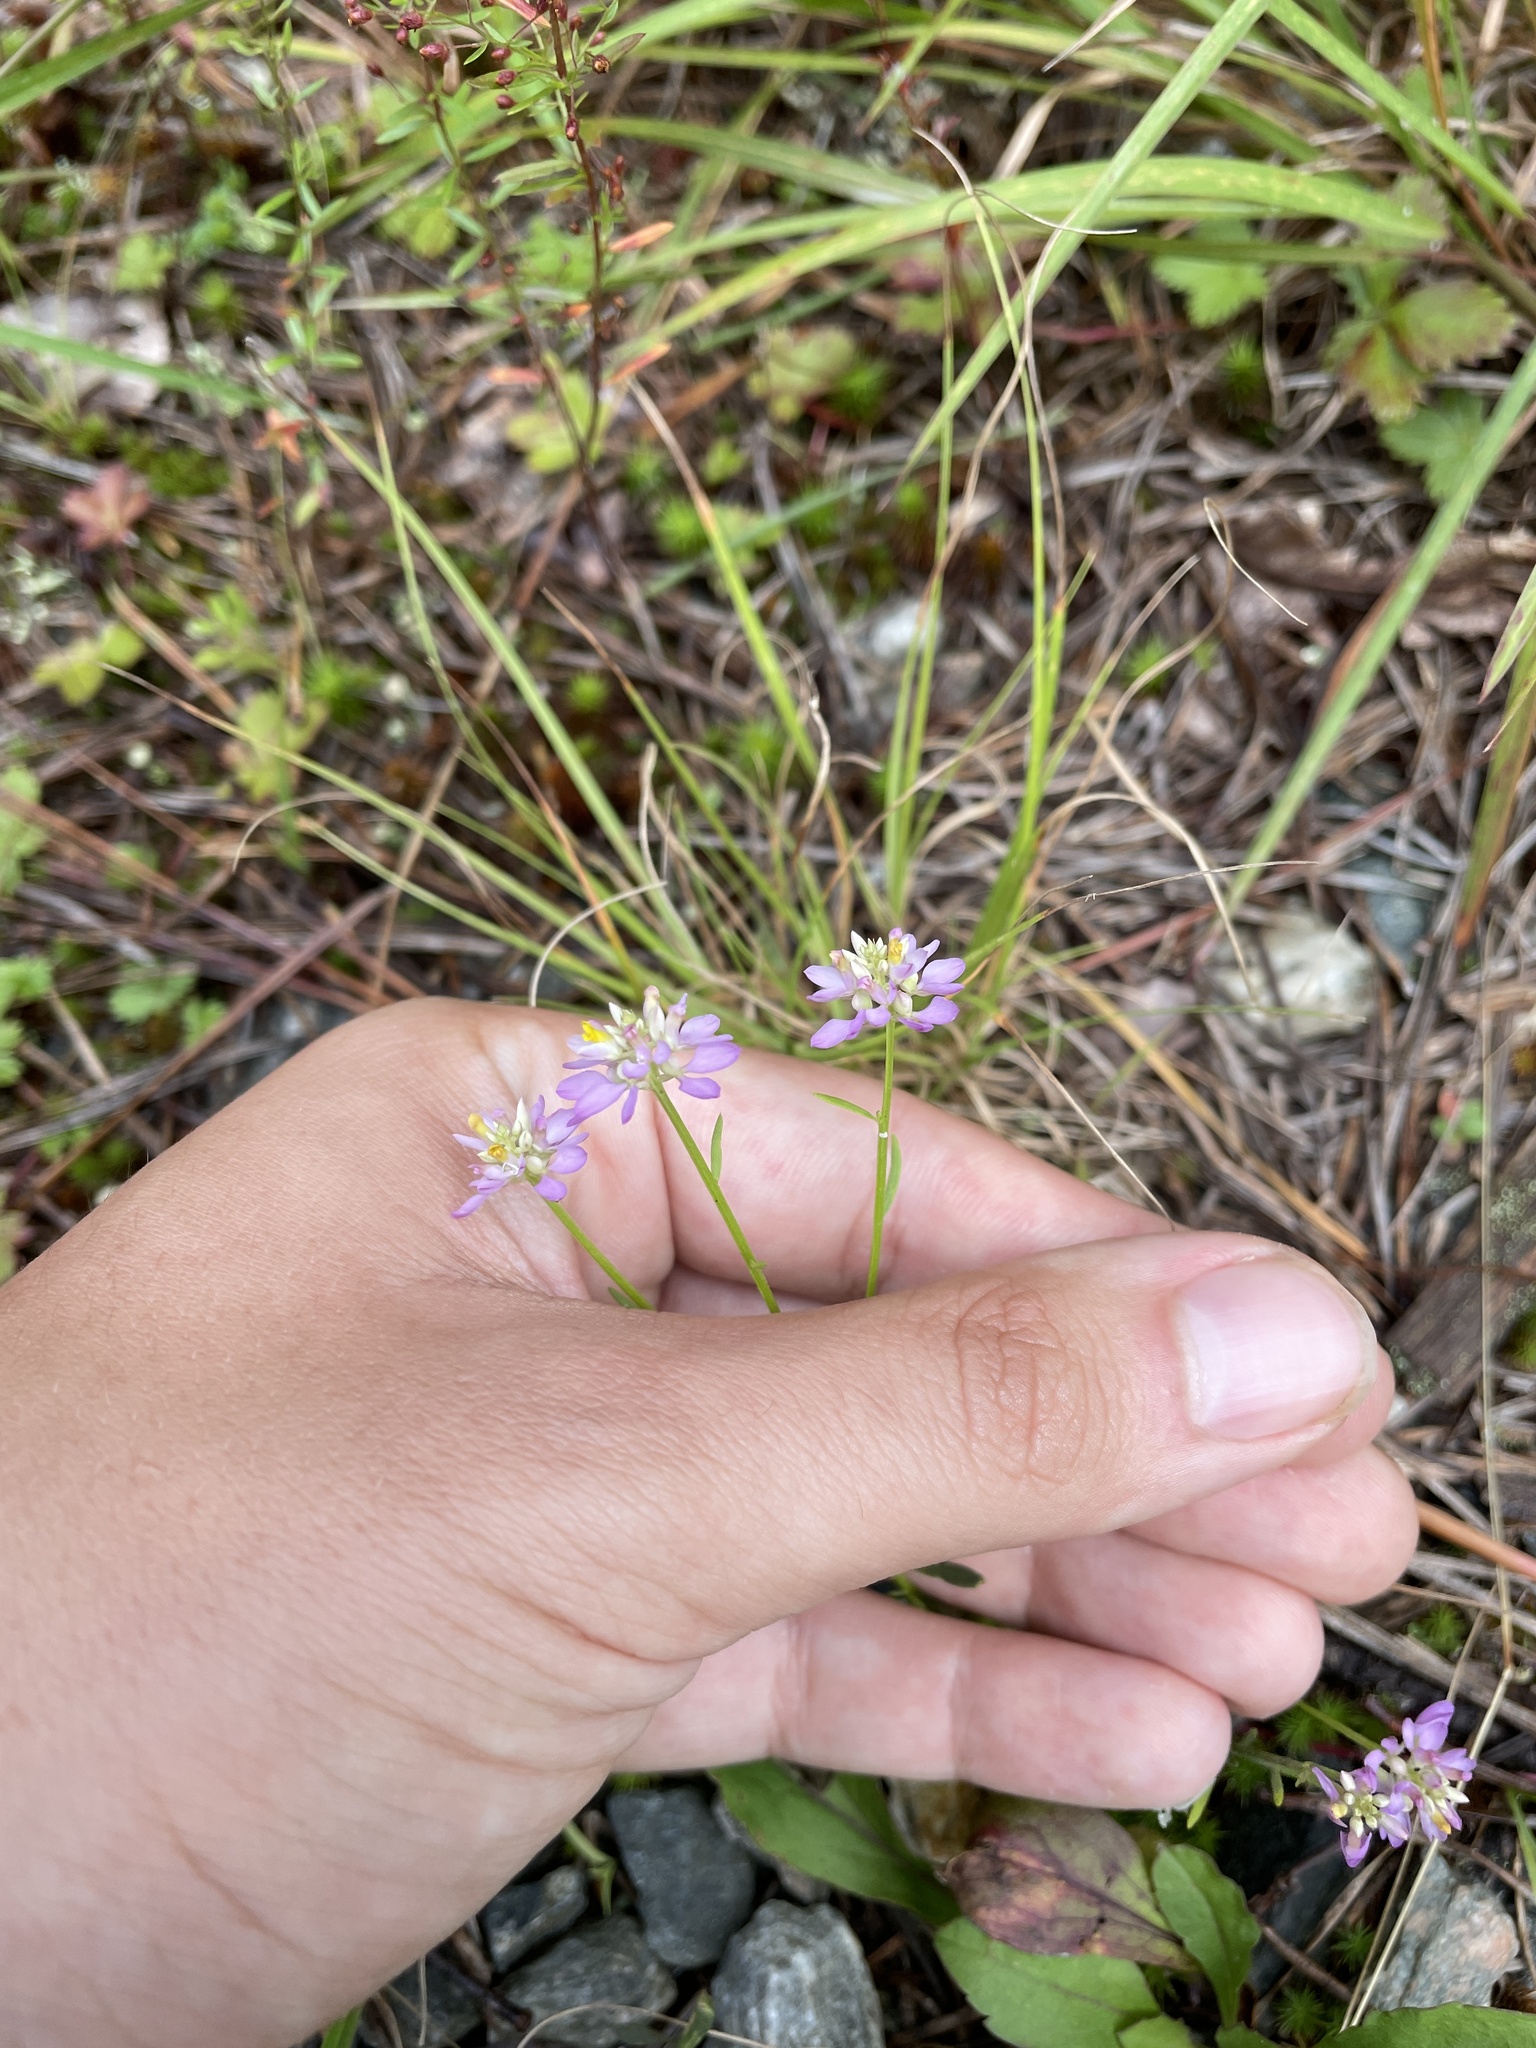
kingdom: Plantae
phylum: Tracheophyta
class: Magnoliopsida
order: Fabales
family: Polygalaceae
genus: Polygala
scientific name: Polygala curtissii
